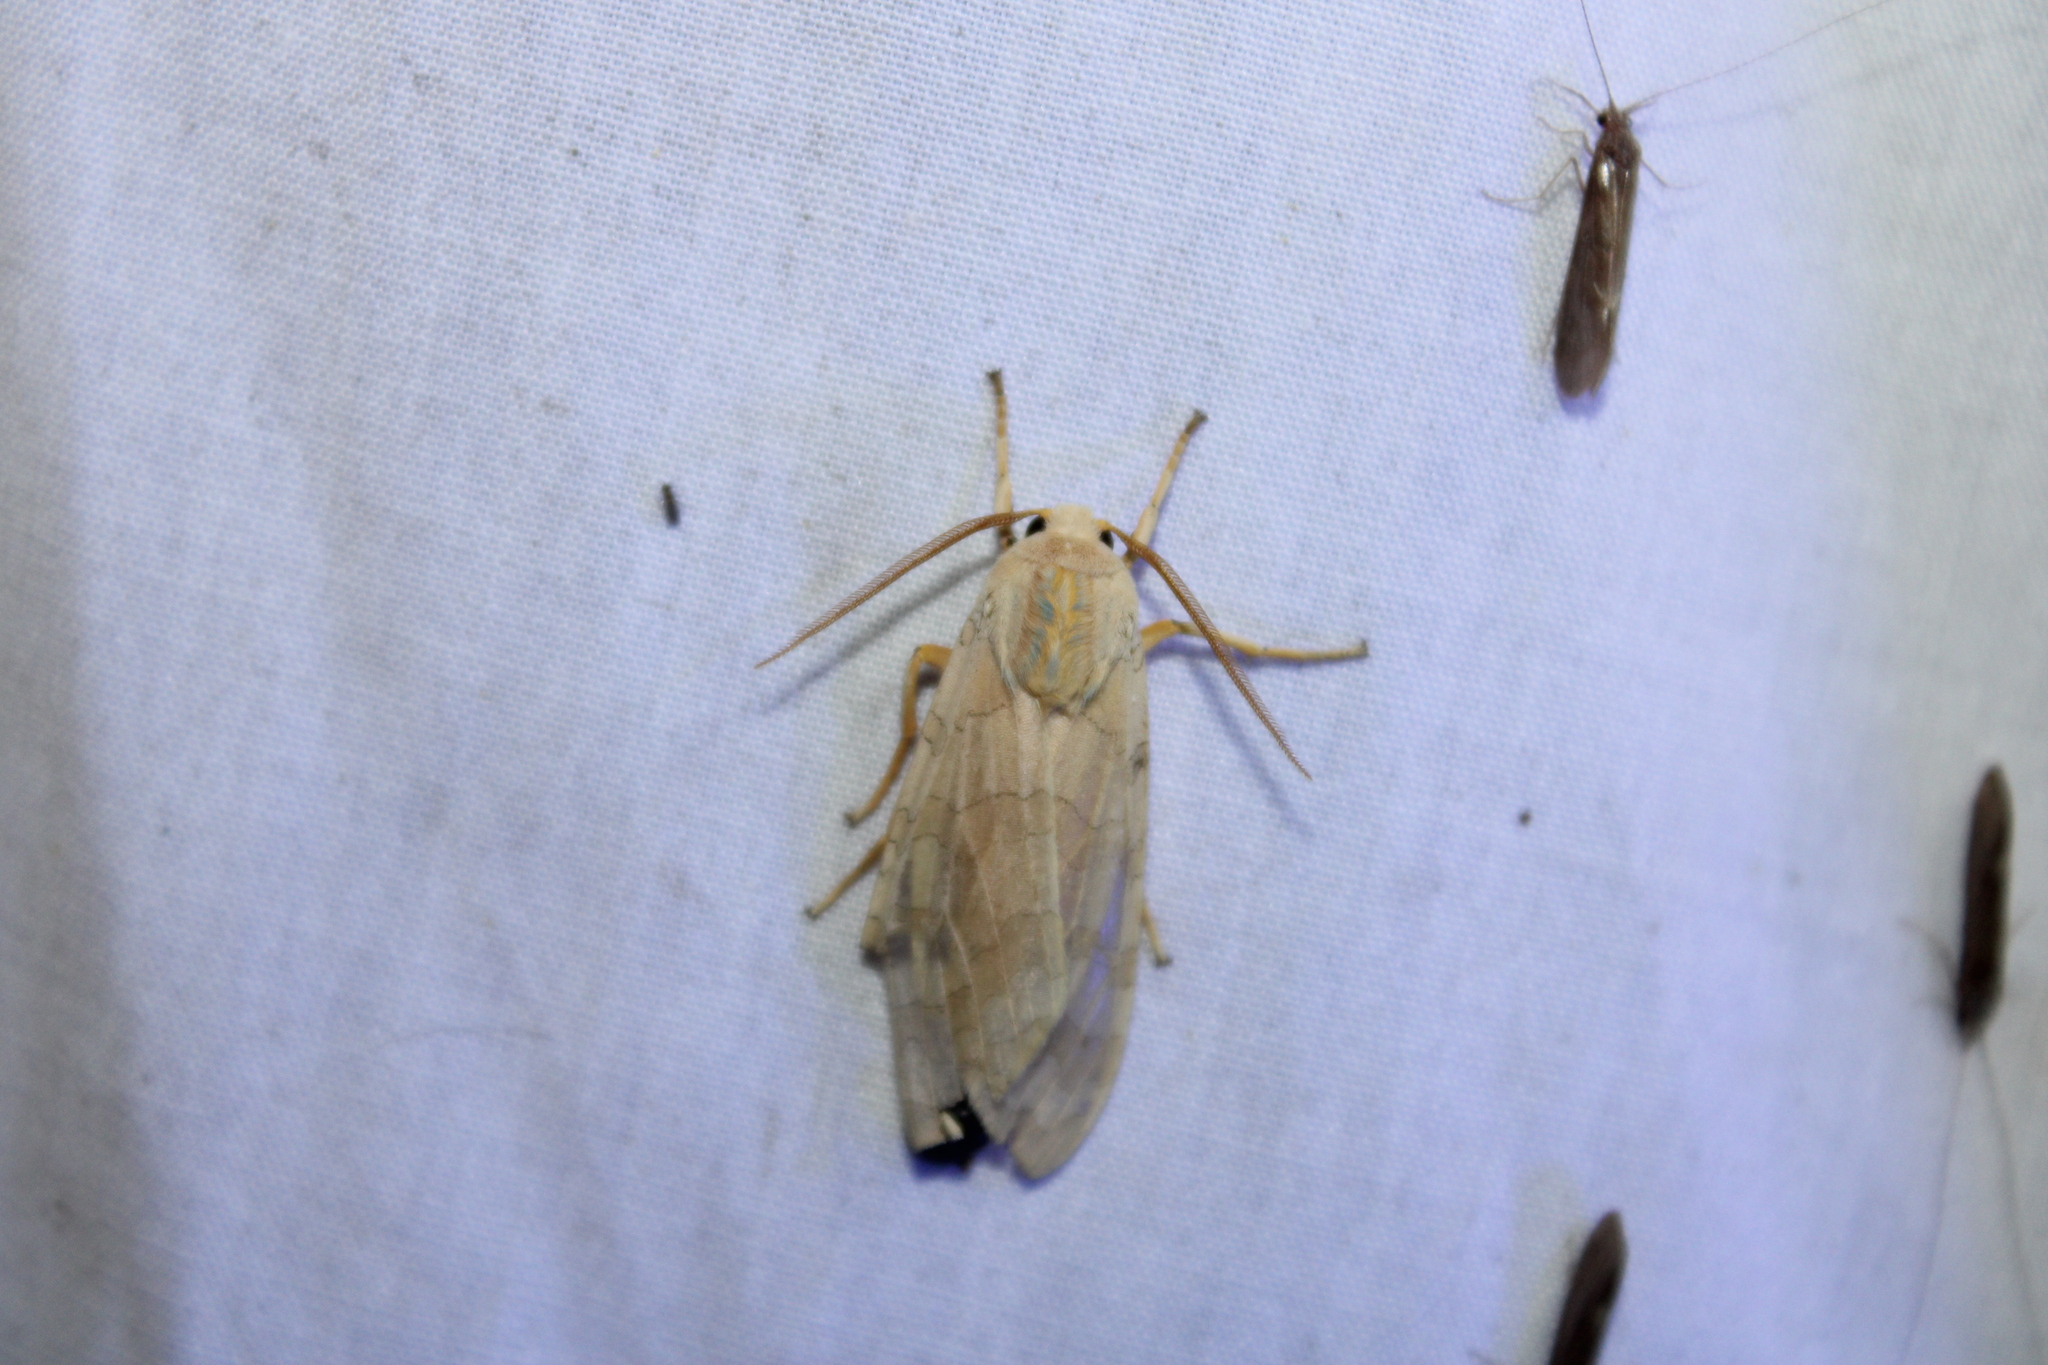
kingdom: Animalia
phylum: Arthropoda
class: Insecta
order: Lepidoptera
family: Erebidae
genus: Halysidota
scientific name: Halysidota
